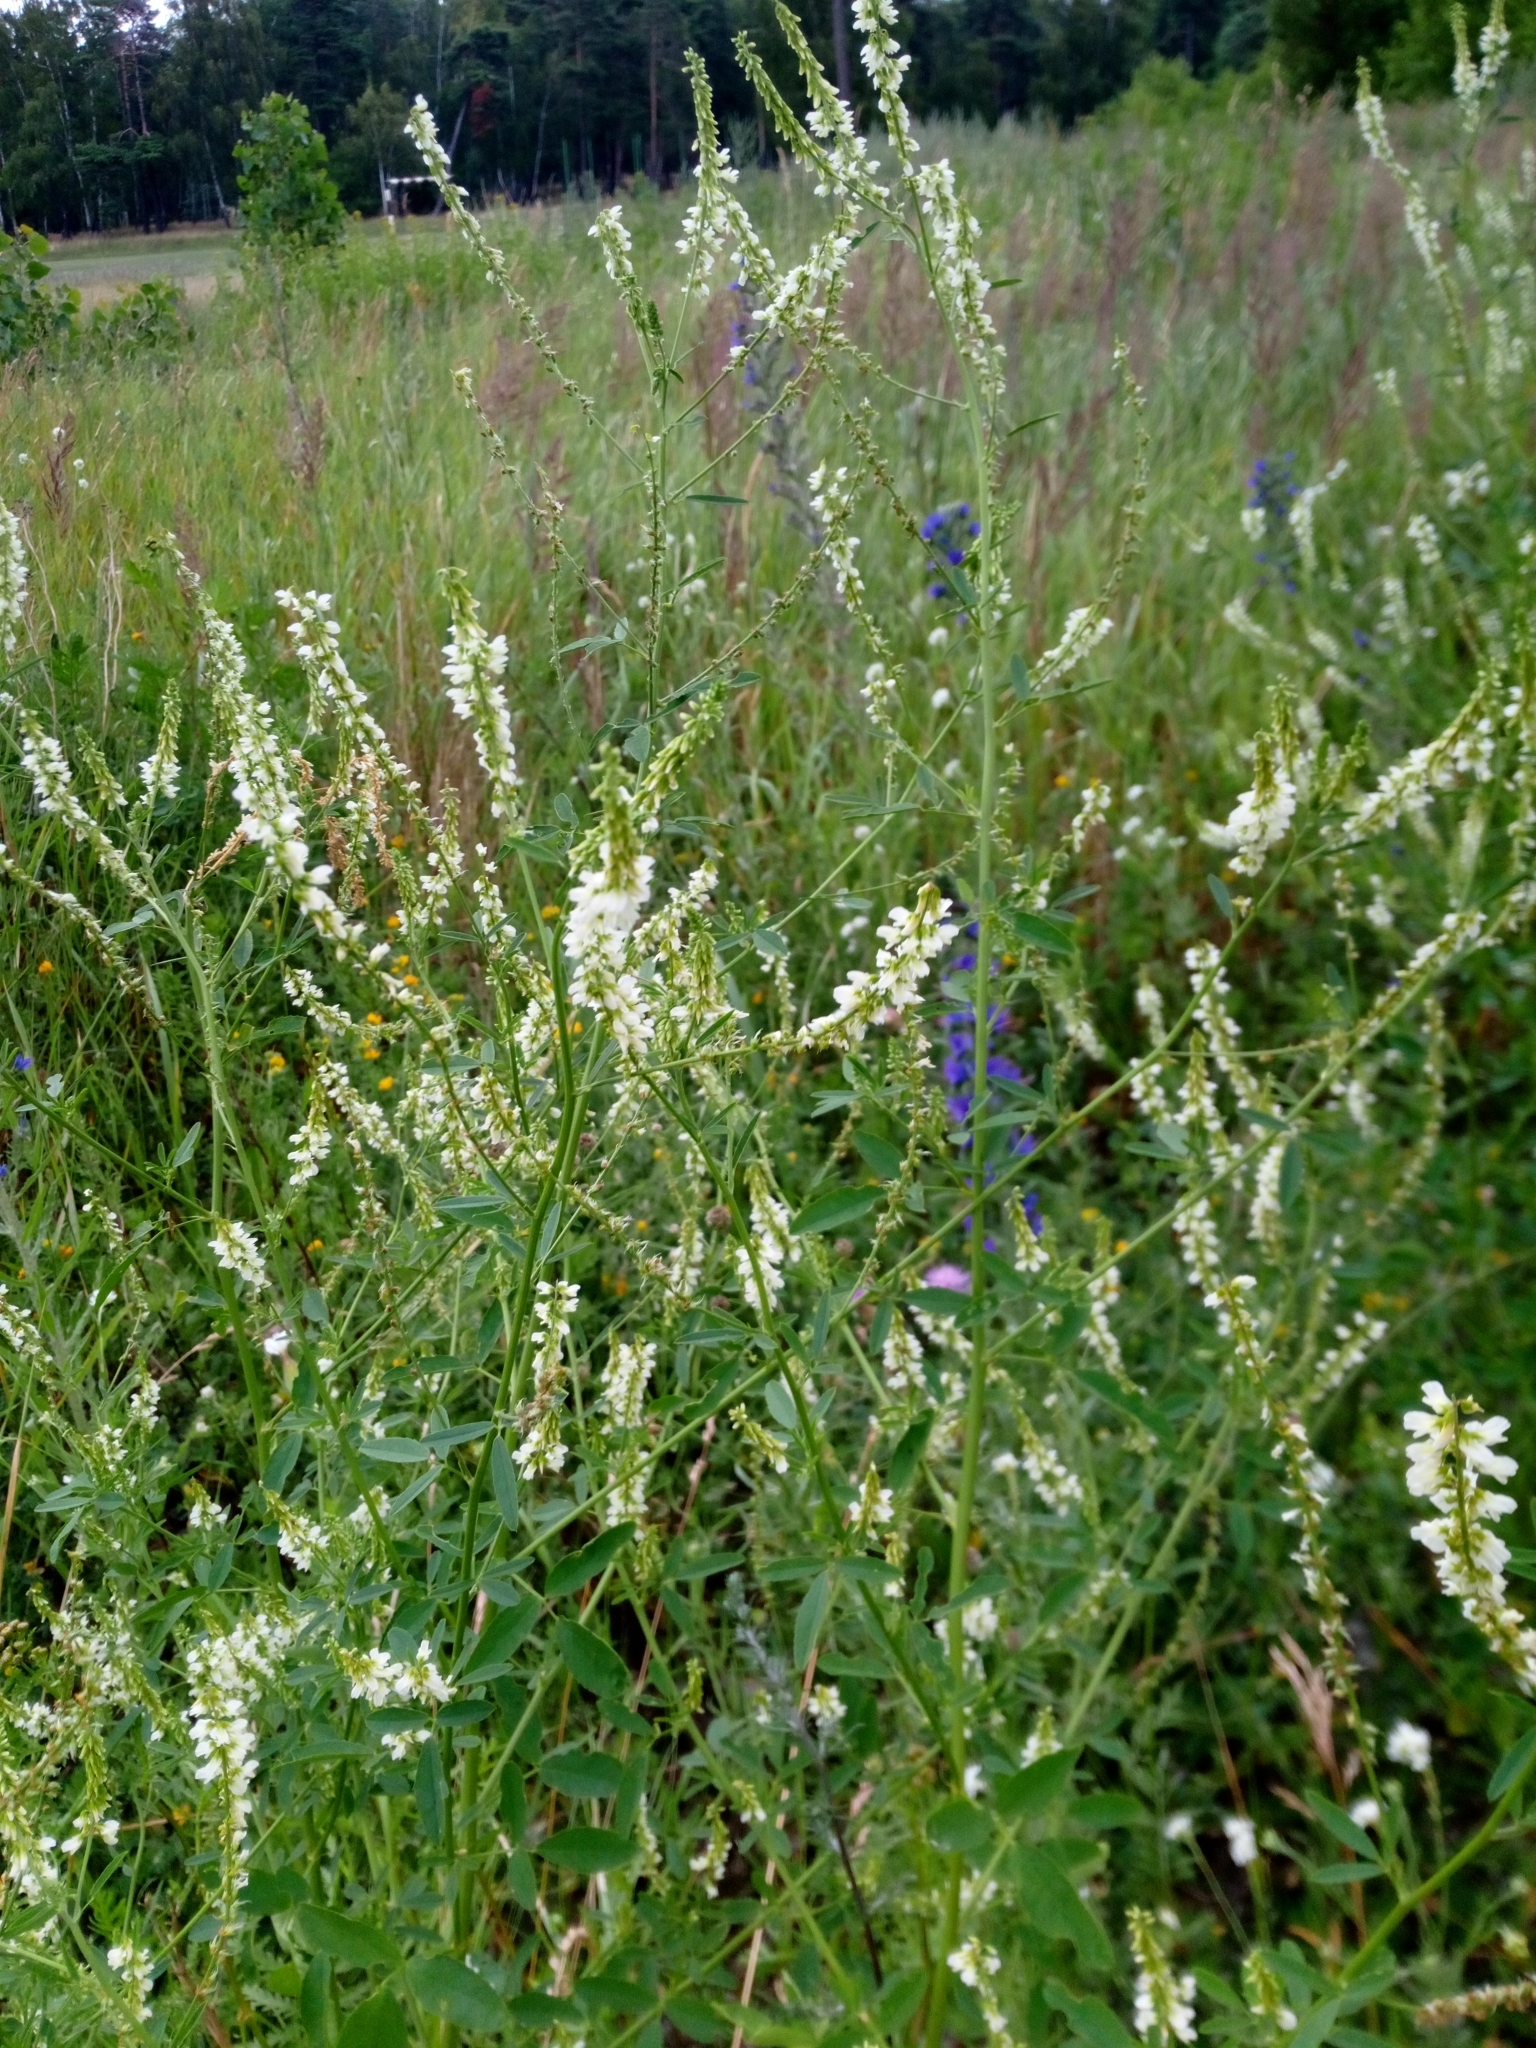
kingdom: Plantae
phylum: Tracheophyta
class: Magnoliopsida
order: Fabales
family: Fabaceae
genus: Melilotus
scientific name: Melilotus albus
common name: White melilot
